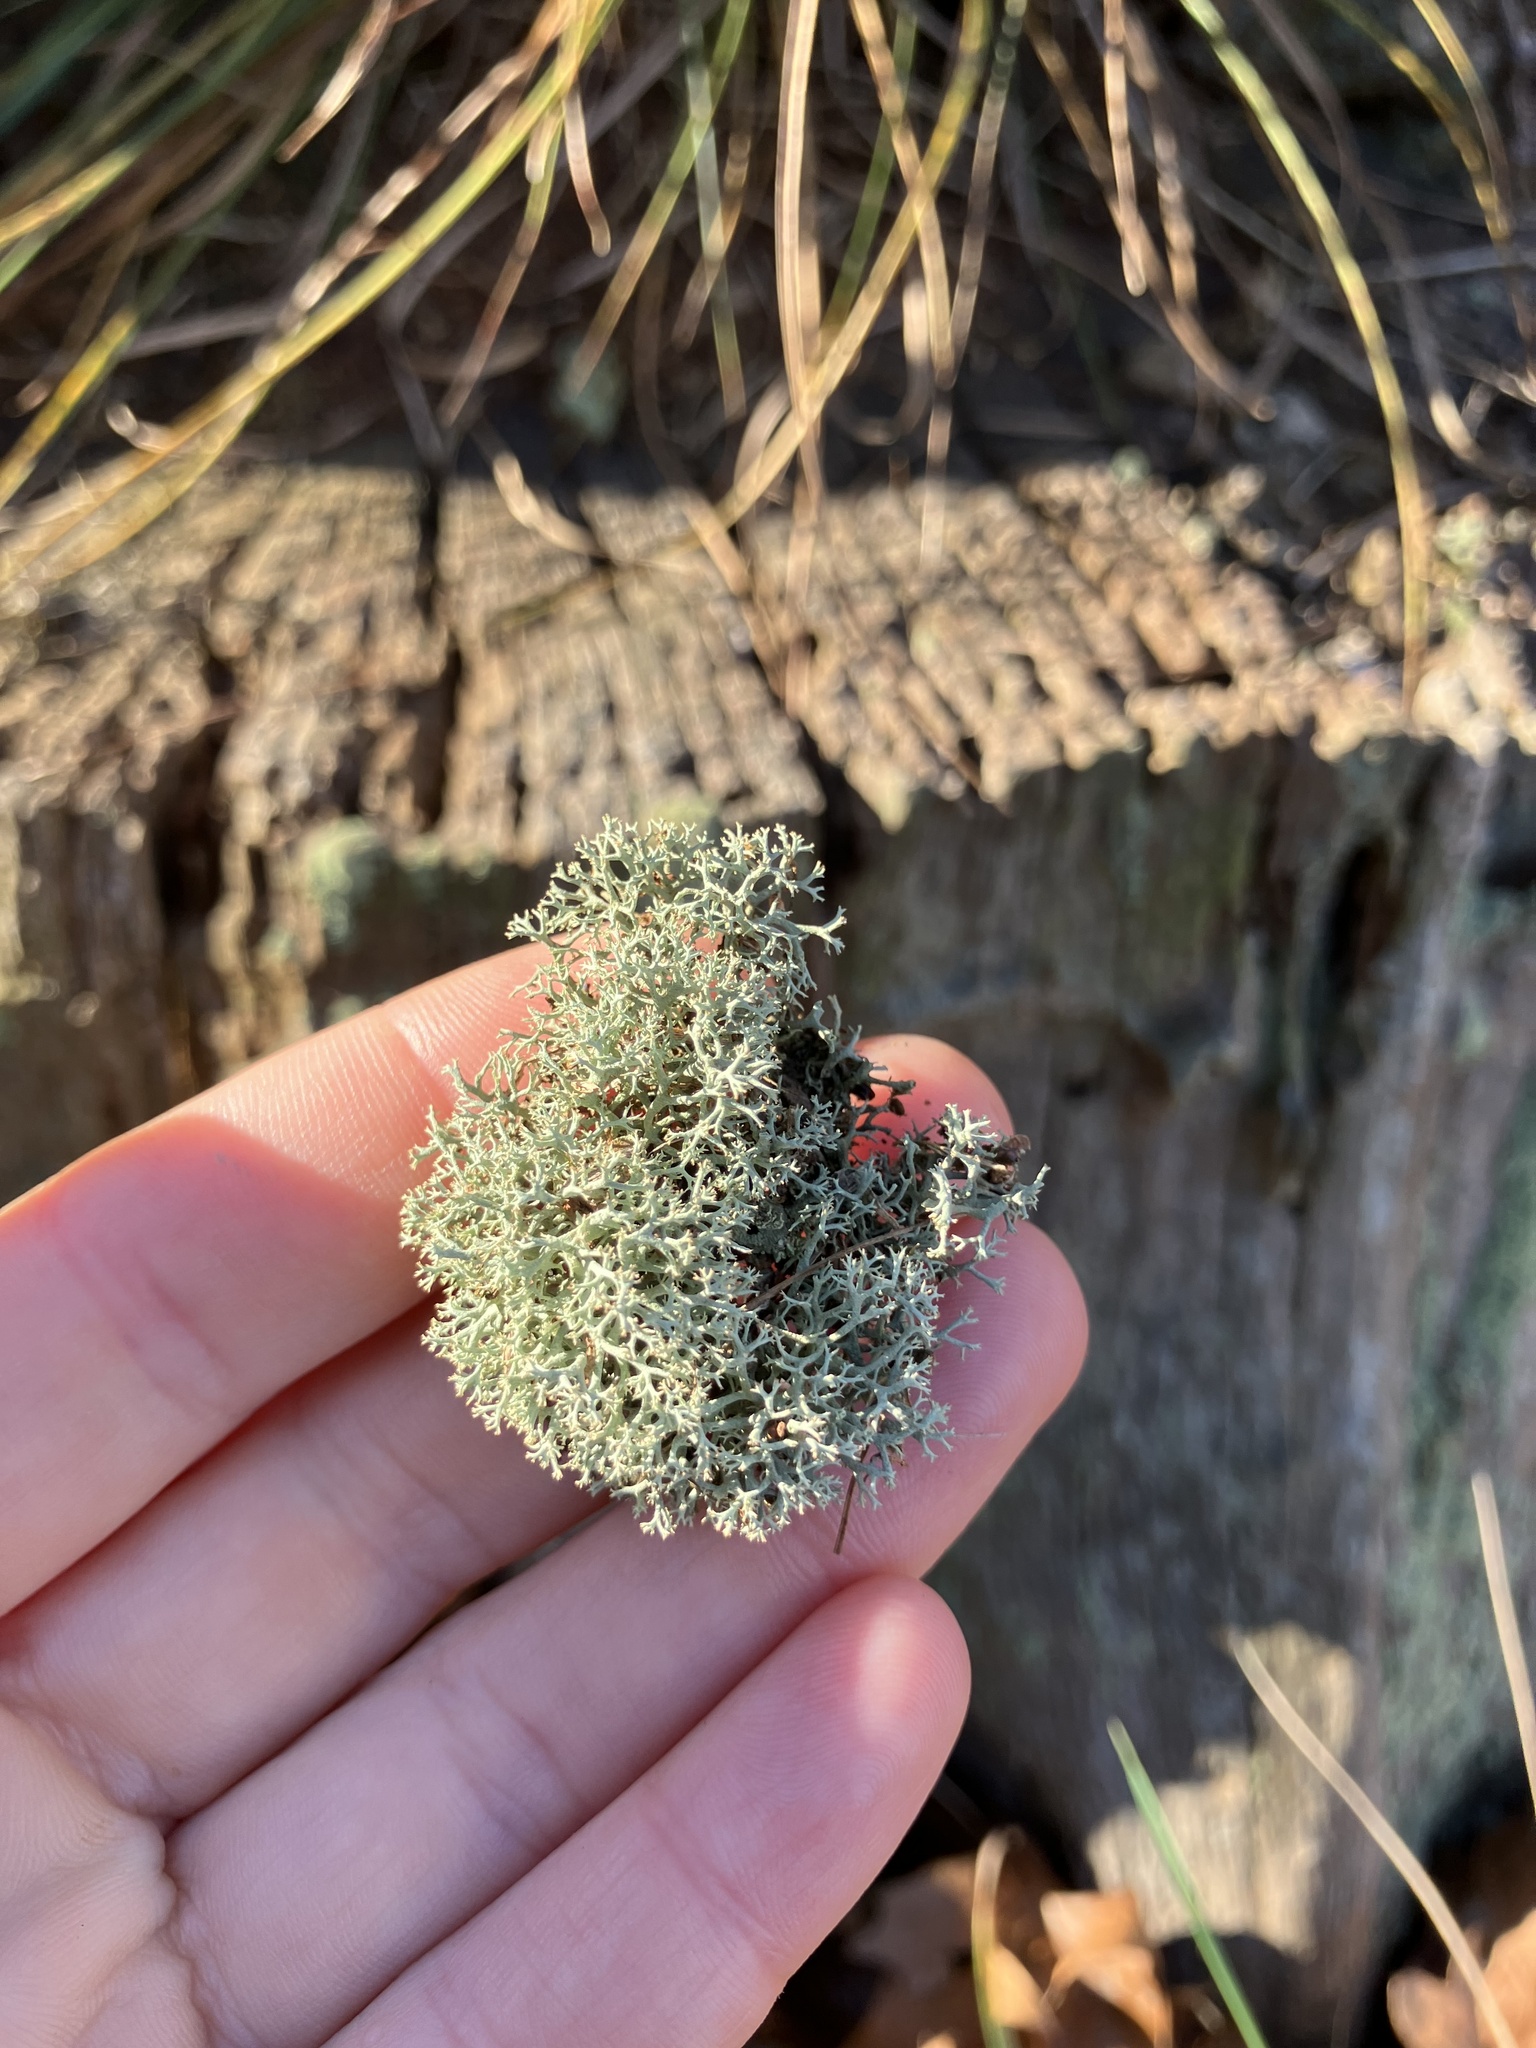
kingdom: Fungi
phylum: Ascomycota
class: Lecanoromycetes
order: Lecanorales
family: Cladoniaceae
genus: Cladonia
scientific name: Cladonia subtenuis
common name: Dixie reindeer lichen
